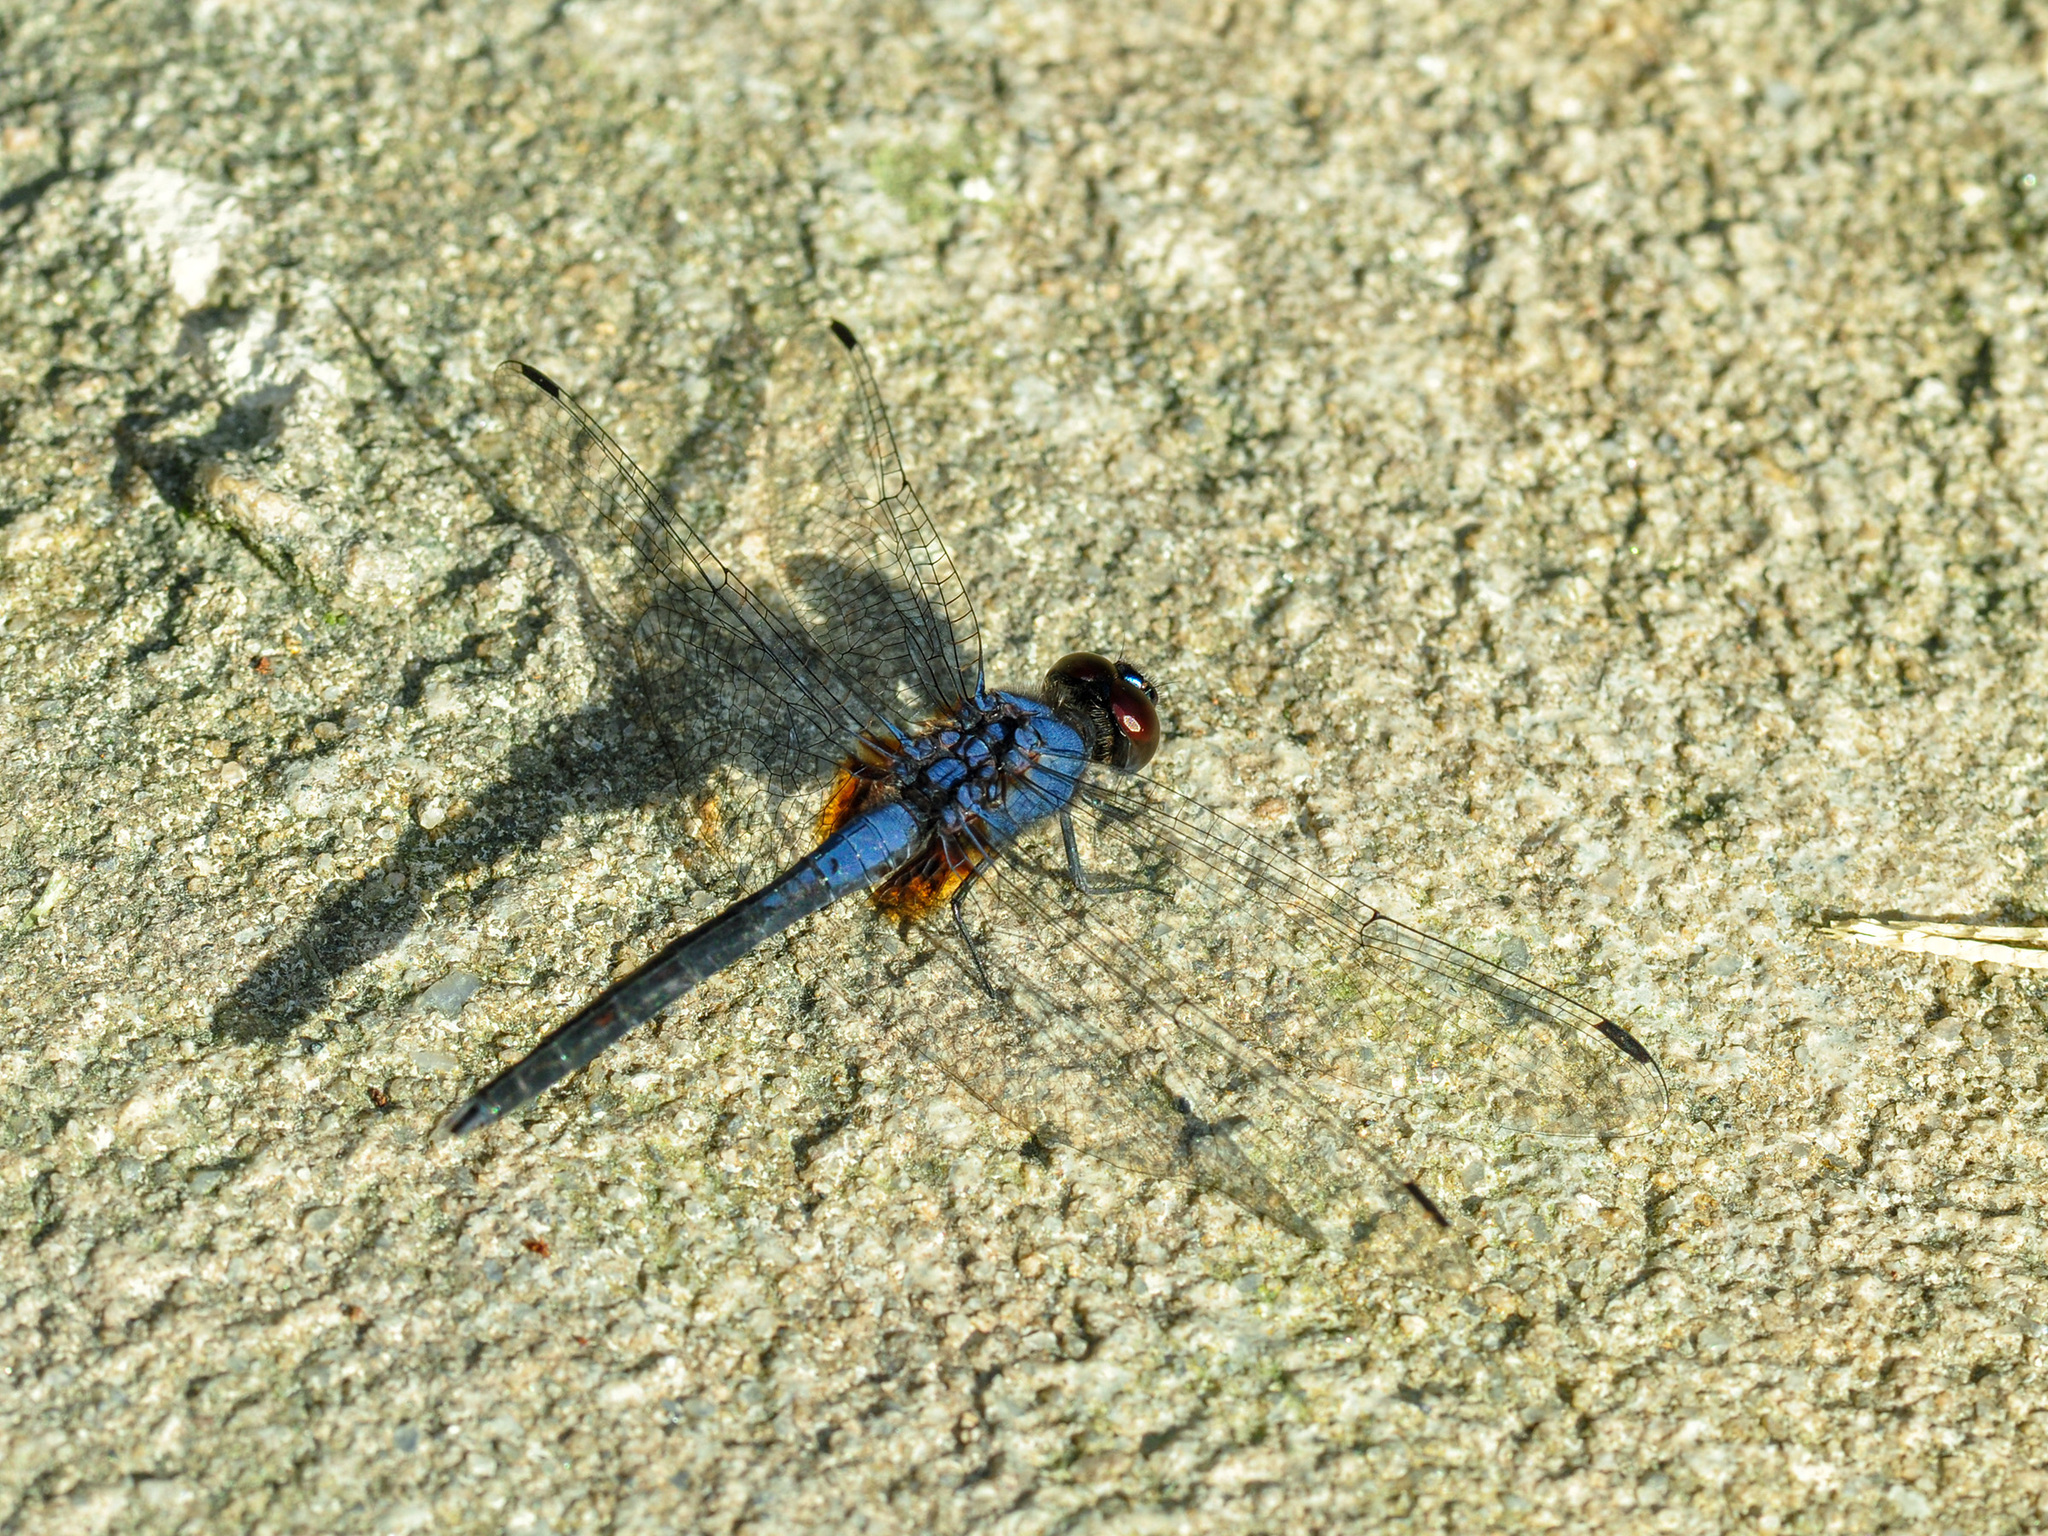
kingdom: Animalia
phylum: Arthropoda
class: Insecta
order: Odonata
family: Libellulidae
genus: Trithemis
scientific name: Trithemis festiva
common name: Indigo dropwing
